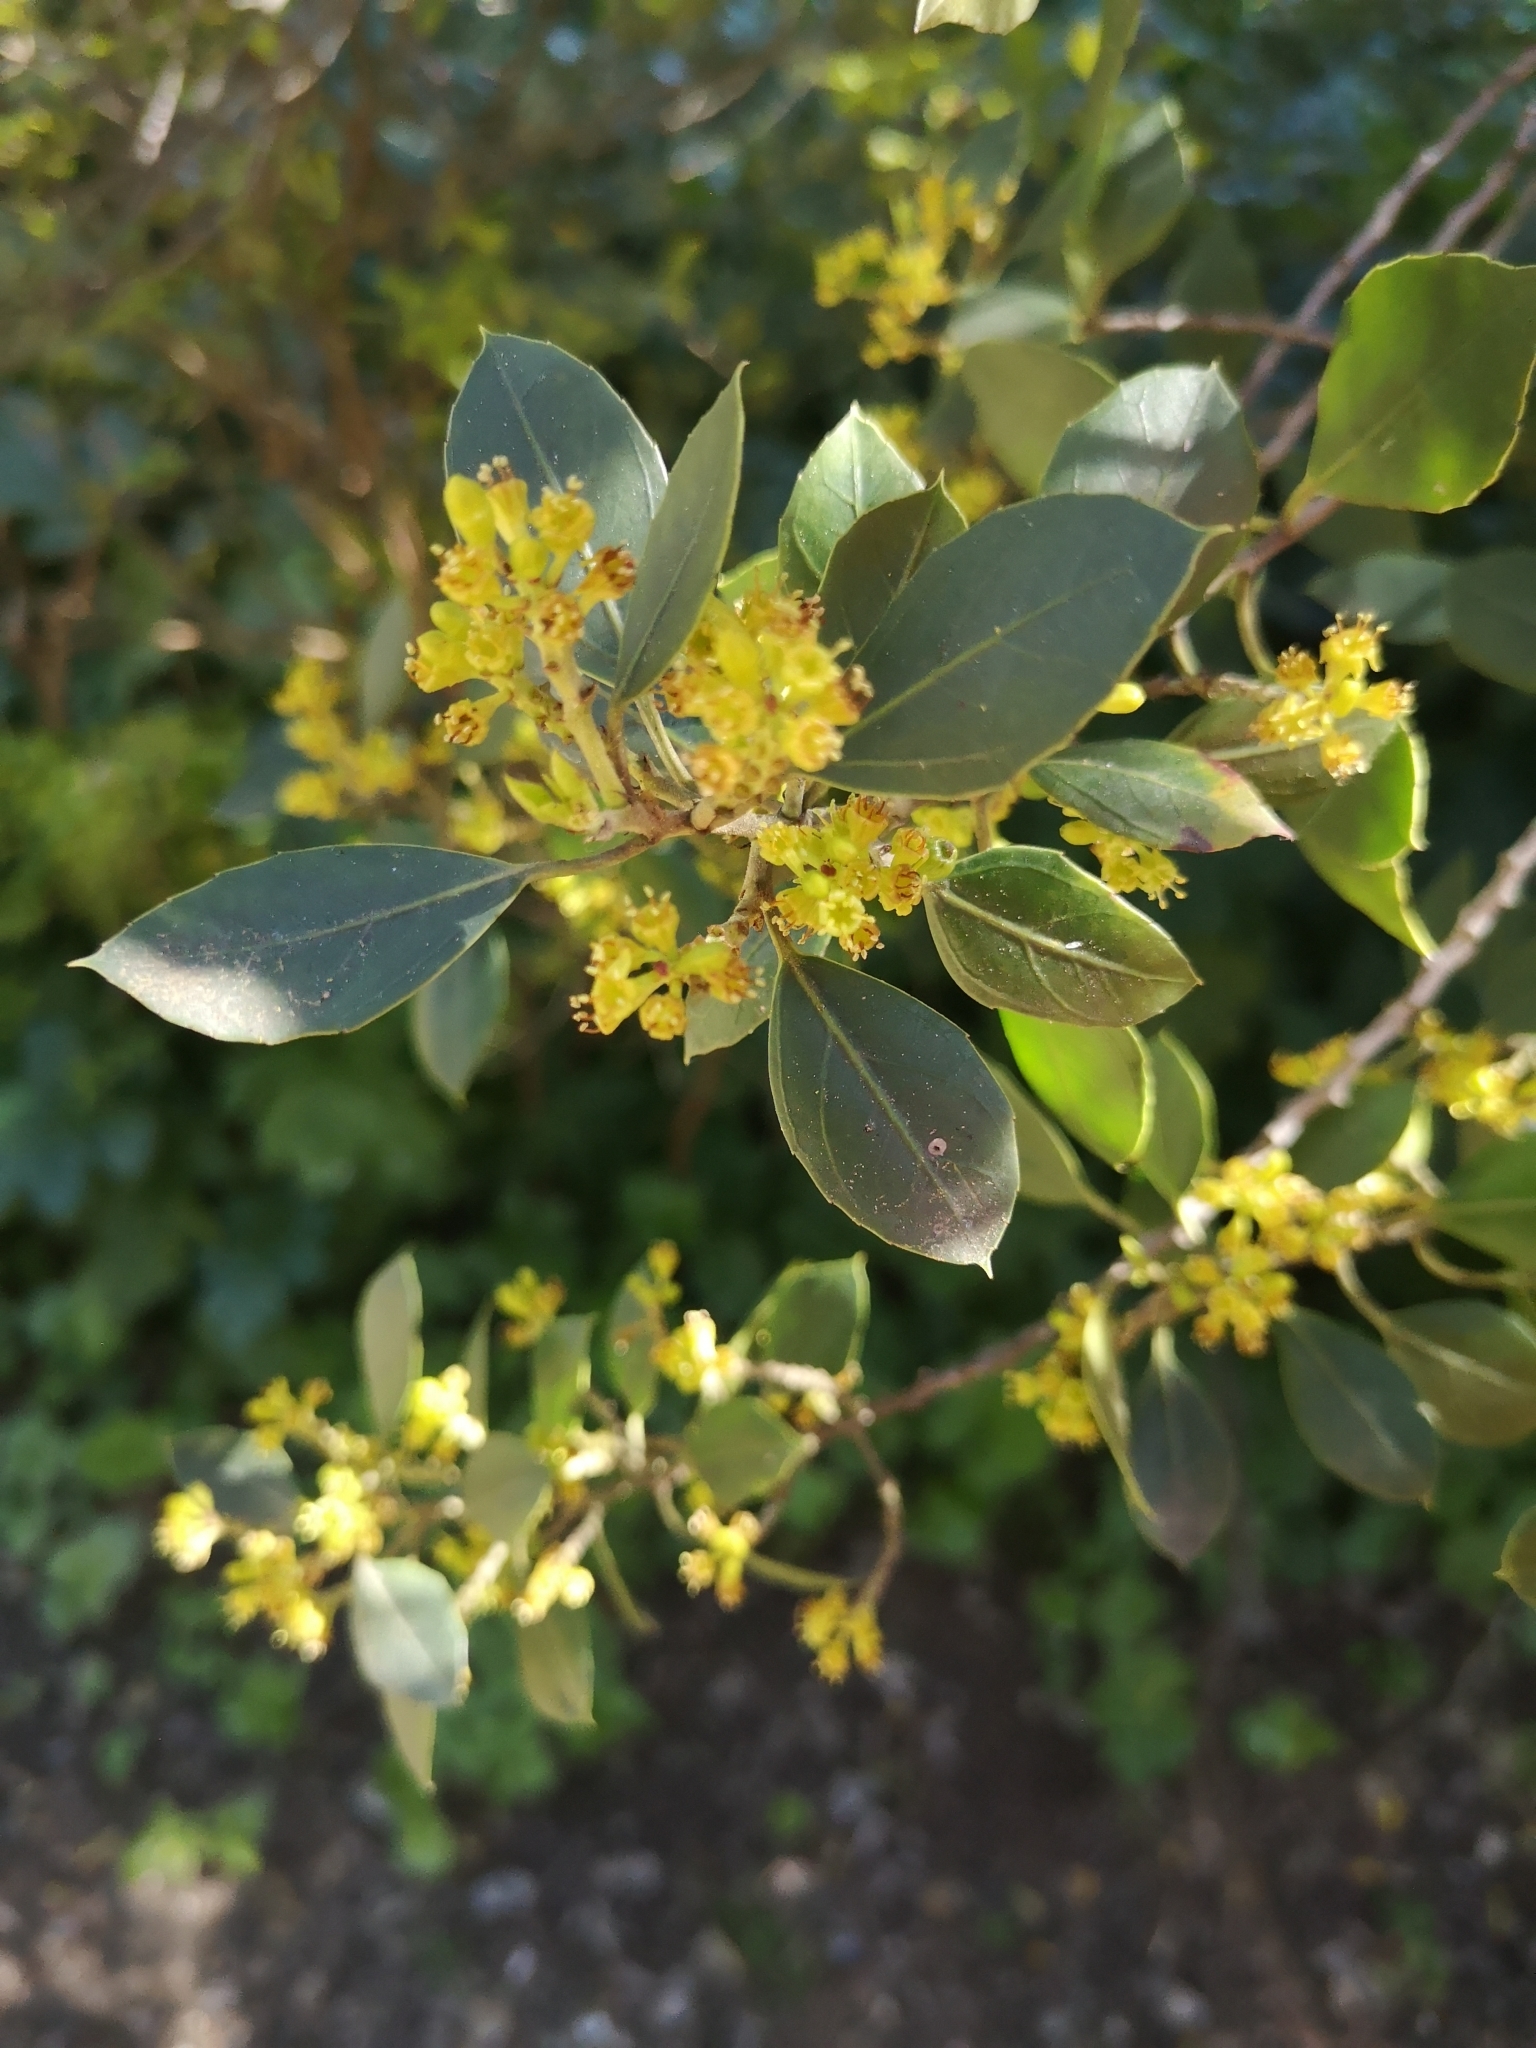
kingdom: Plantae
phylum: Tracheophyta
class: Magnoliopsida
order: Rosales
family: Rhamnaceae
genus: Rhamnus
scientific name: Rhamnus alaternus
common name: Mediterranean buckthorn
